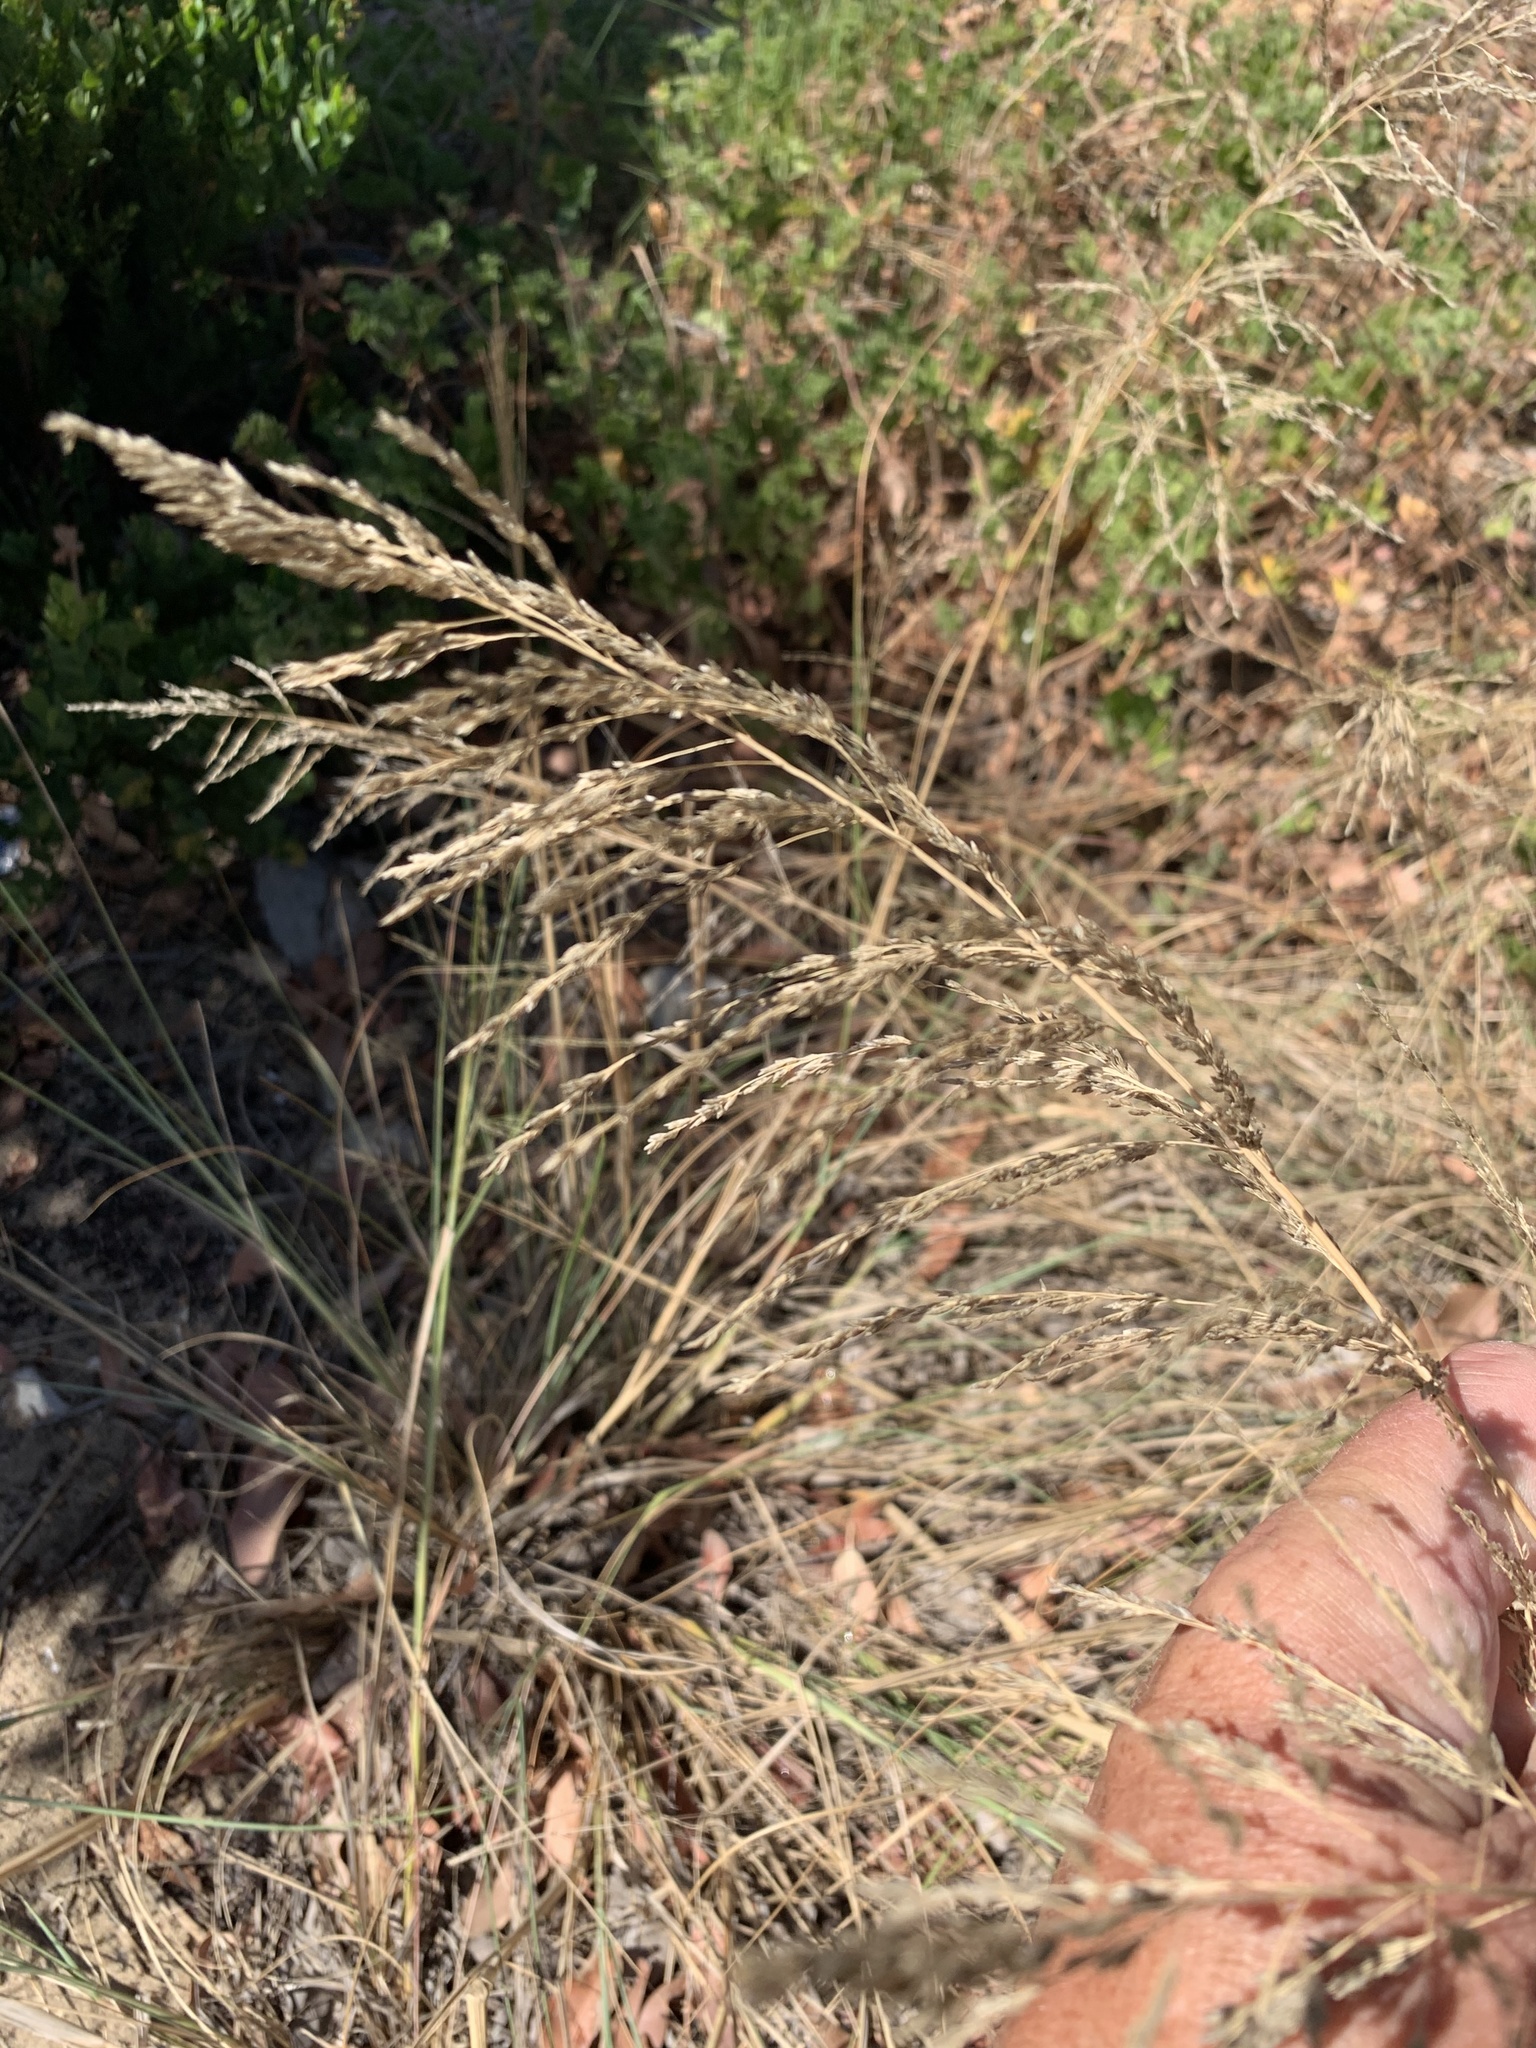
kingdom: Plantae
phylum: Tracheophyta
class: Liliopsida
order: Poales
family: Poaceae
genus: Eragrostis
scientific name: Eragrostis curvula
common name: African love-grass
